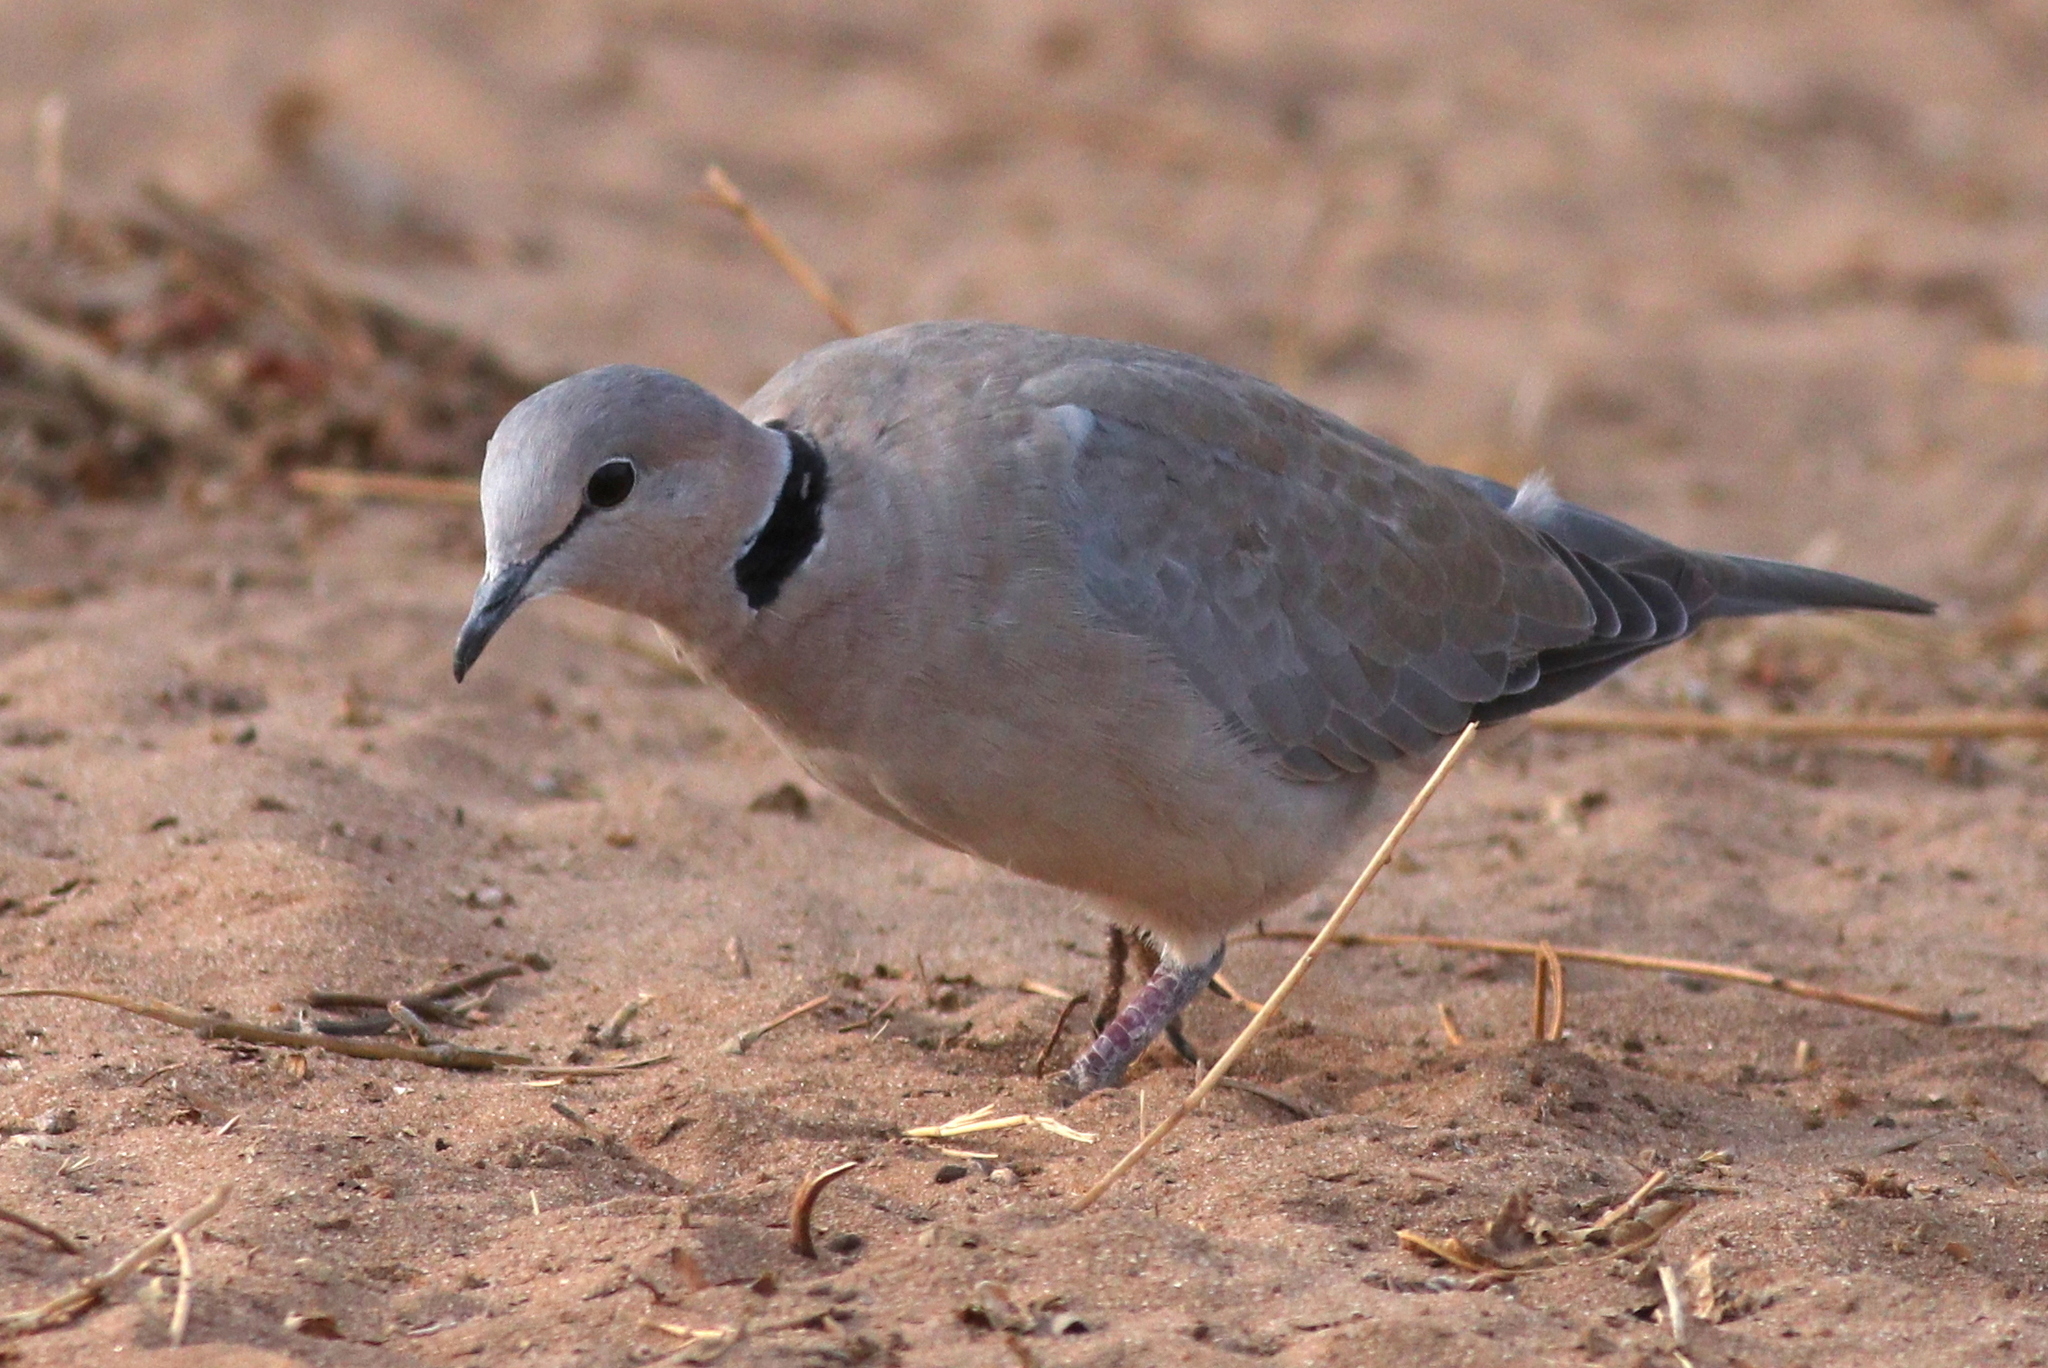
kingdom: Animalia
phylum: Chordata
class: Aves
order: Columbiformes
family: Columbidae
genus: Streptopelia
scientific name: Streptopelia capicola
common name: Ring-necked dove
